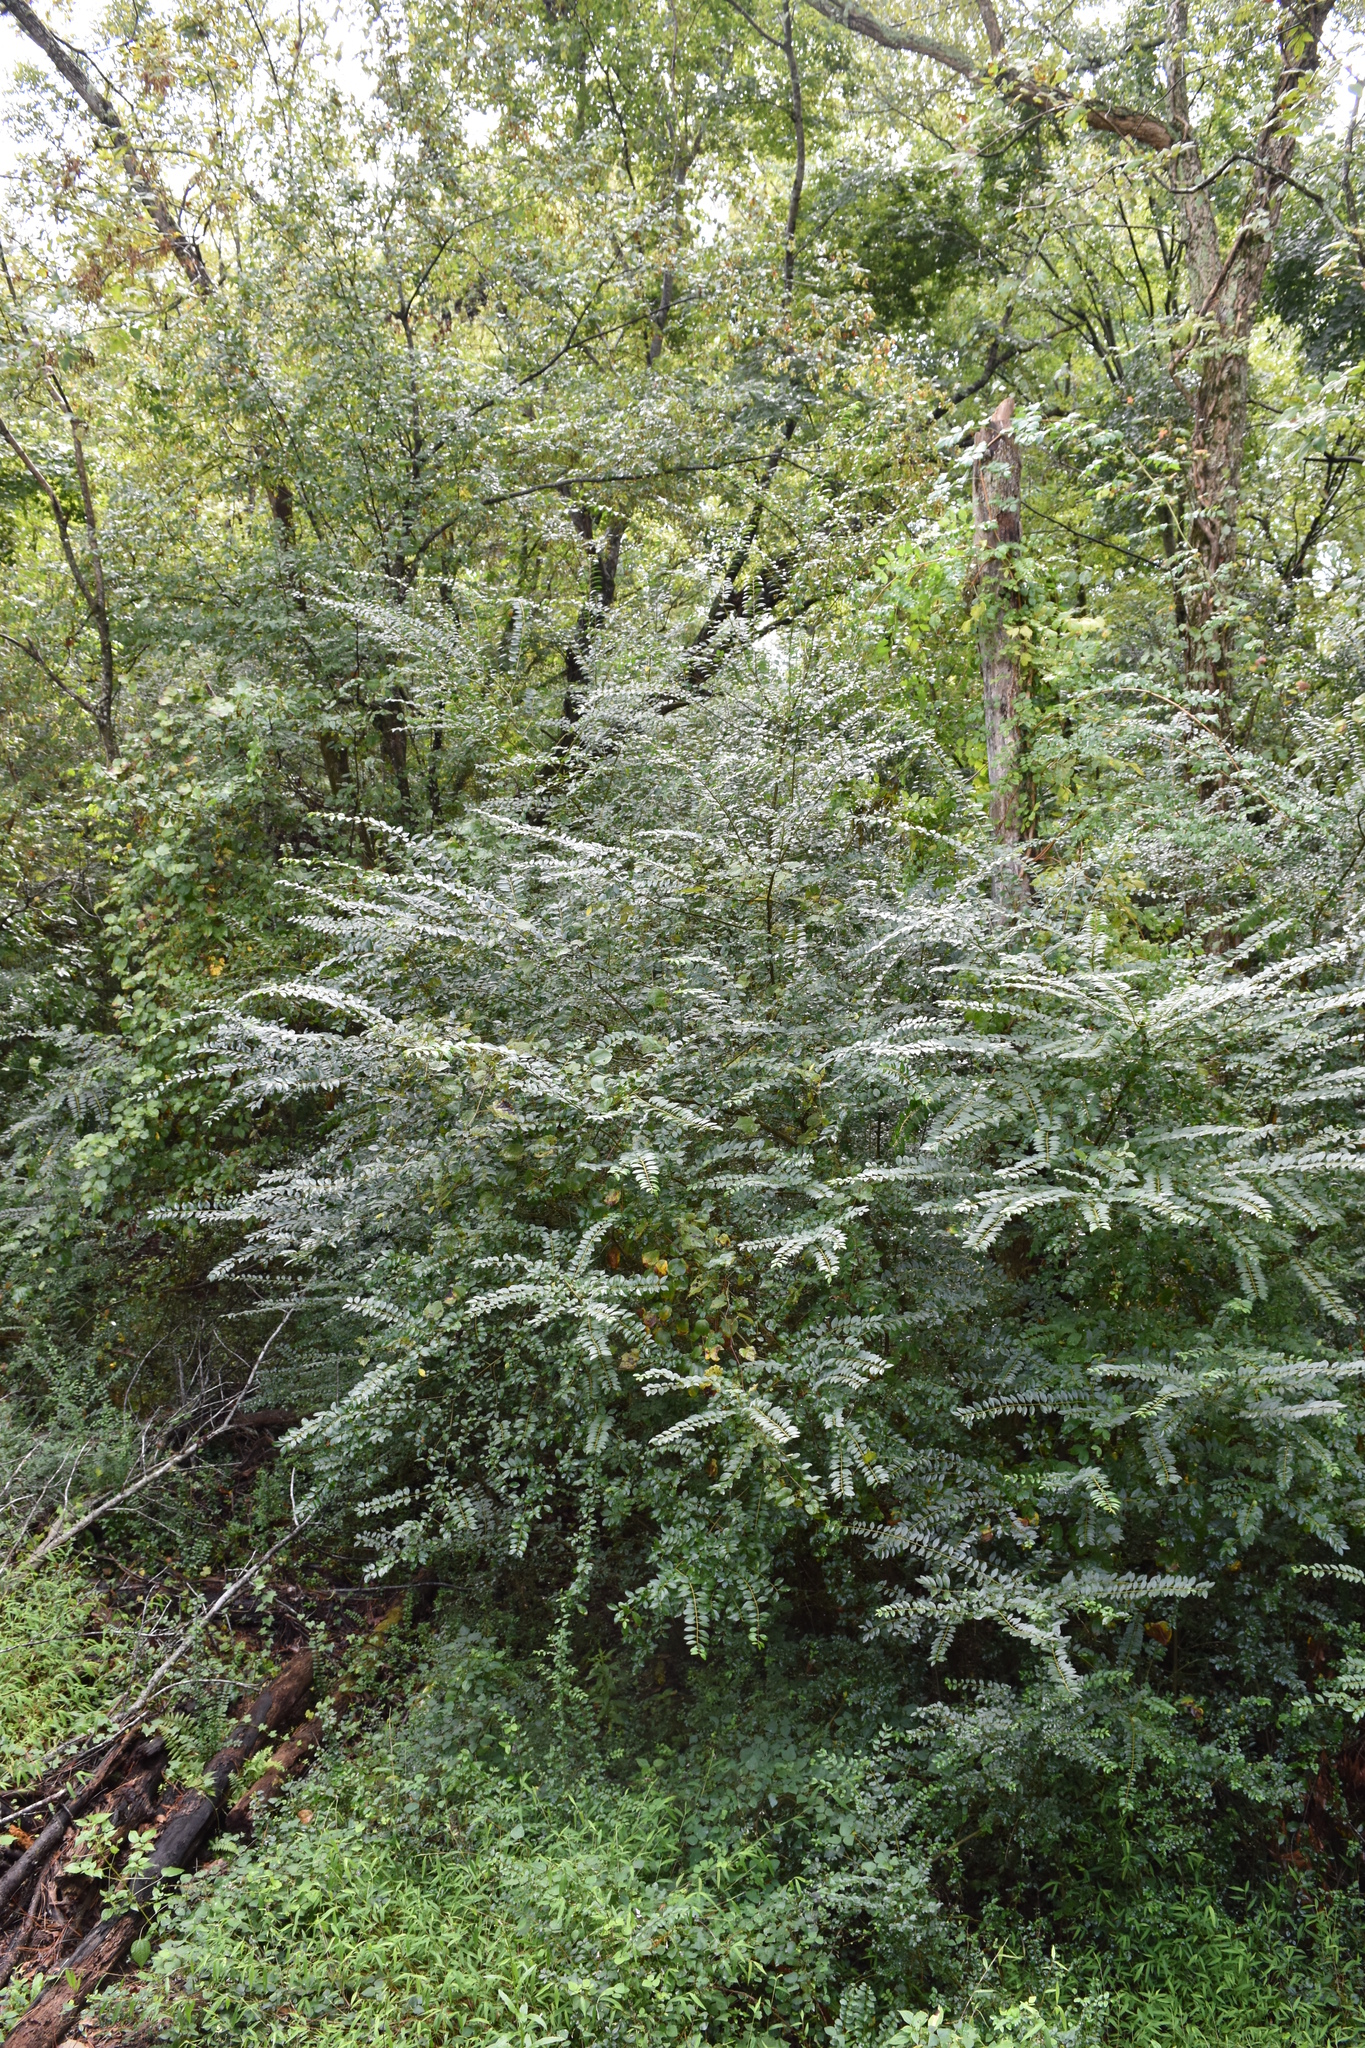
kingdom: Plantae
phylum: Tracheophyta
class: Magnoliopsida
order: Lamiales
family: Oleaceae
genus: Ligustrum
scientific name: Ligustrum sinense
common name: Chinese privet
